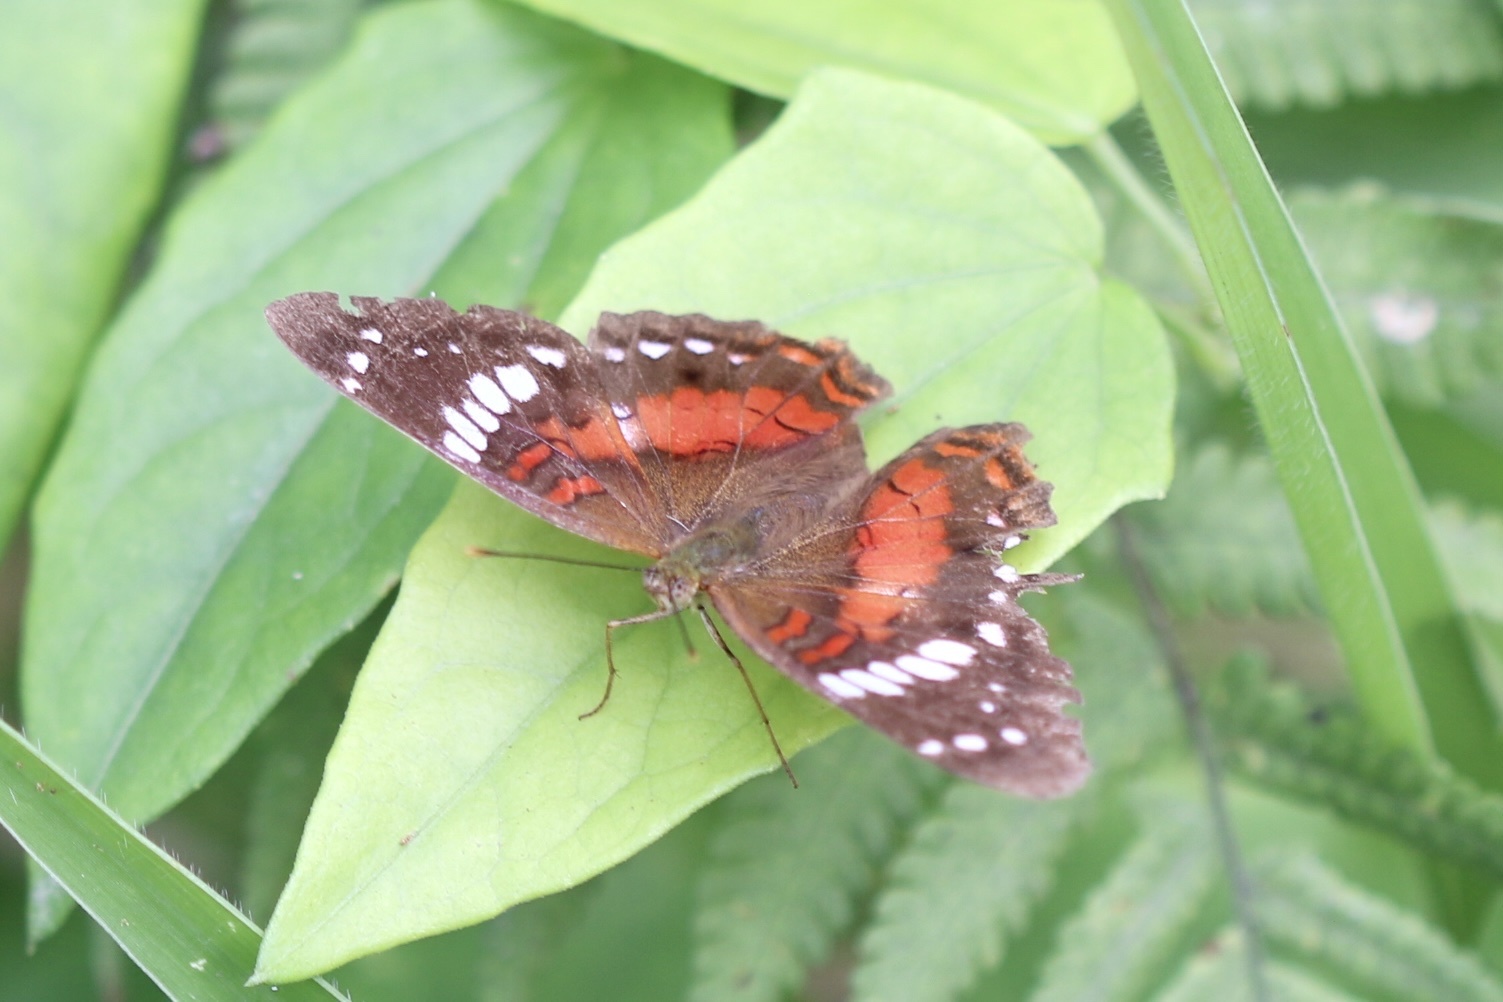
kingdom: Animalia
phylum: Arthropoda
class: Insecta
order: Lepidoptera
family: Nymphalidae
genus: Anartia
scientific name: Anartia amathea
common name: Red peacock
